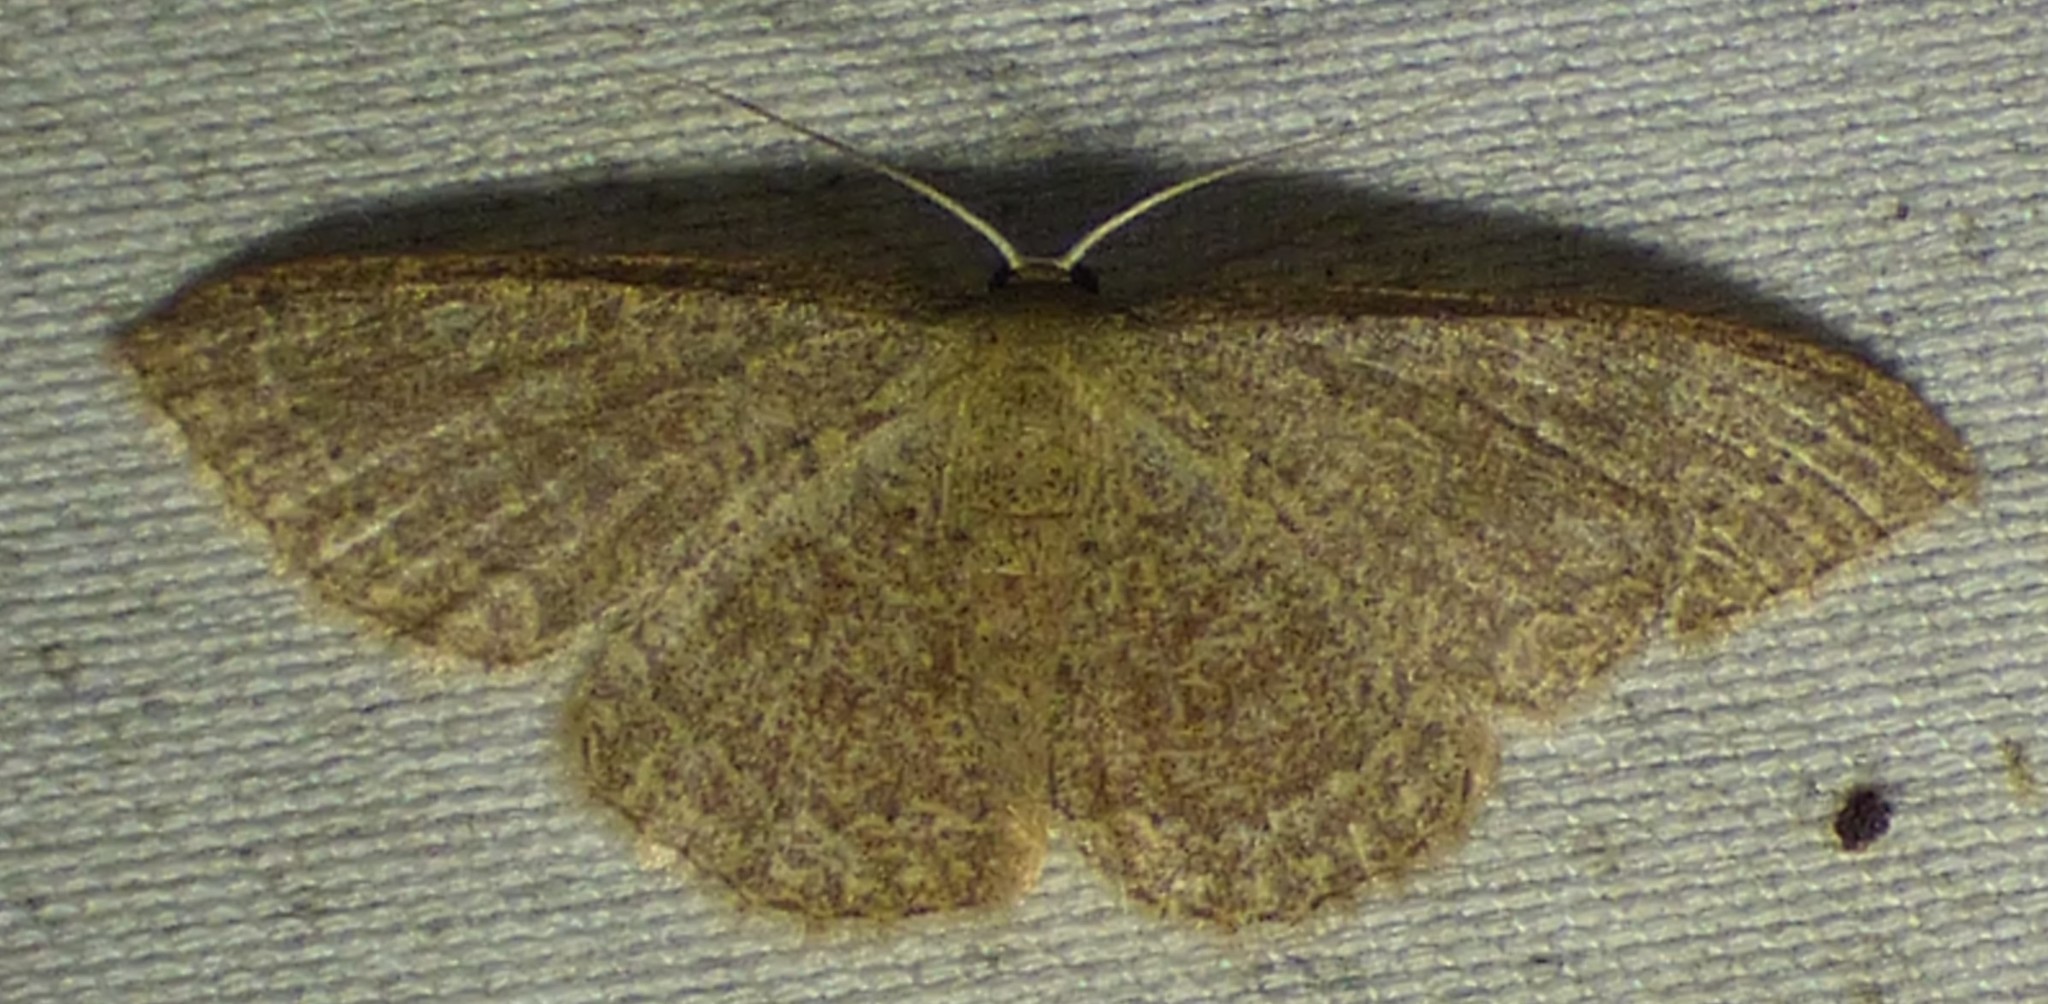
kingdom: Animalia
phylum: Arthropoda
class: Insecta
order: Lepidoptera
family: Geometridae
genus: Pleuroprucha
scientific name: Pleuroprucha insulsaria
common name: Common tan wave
